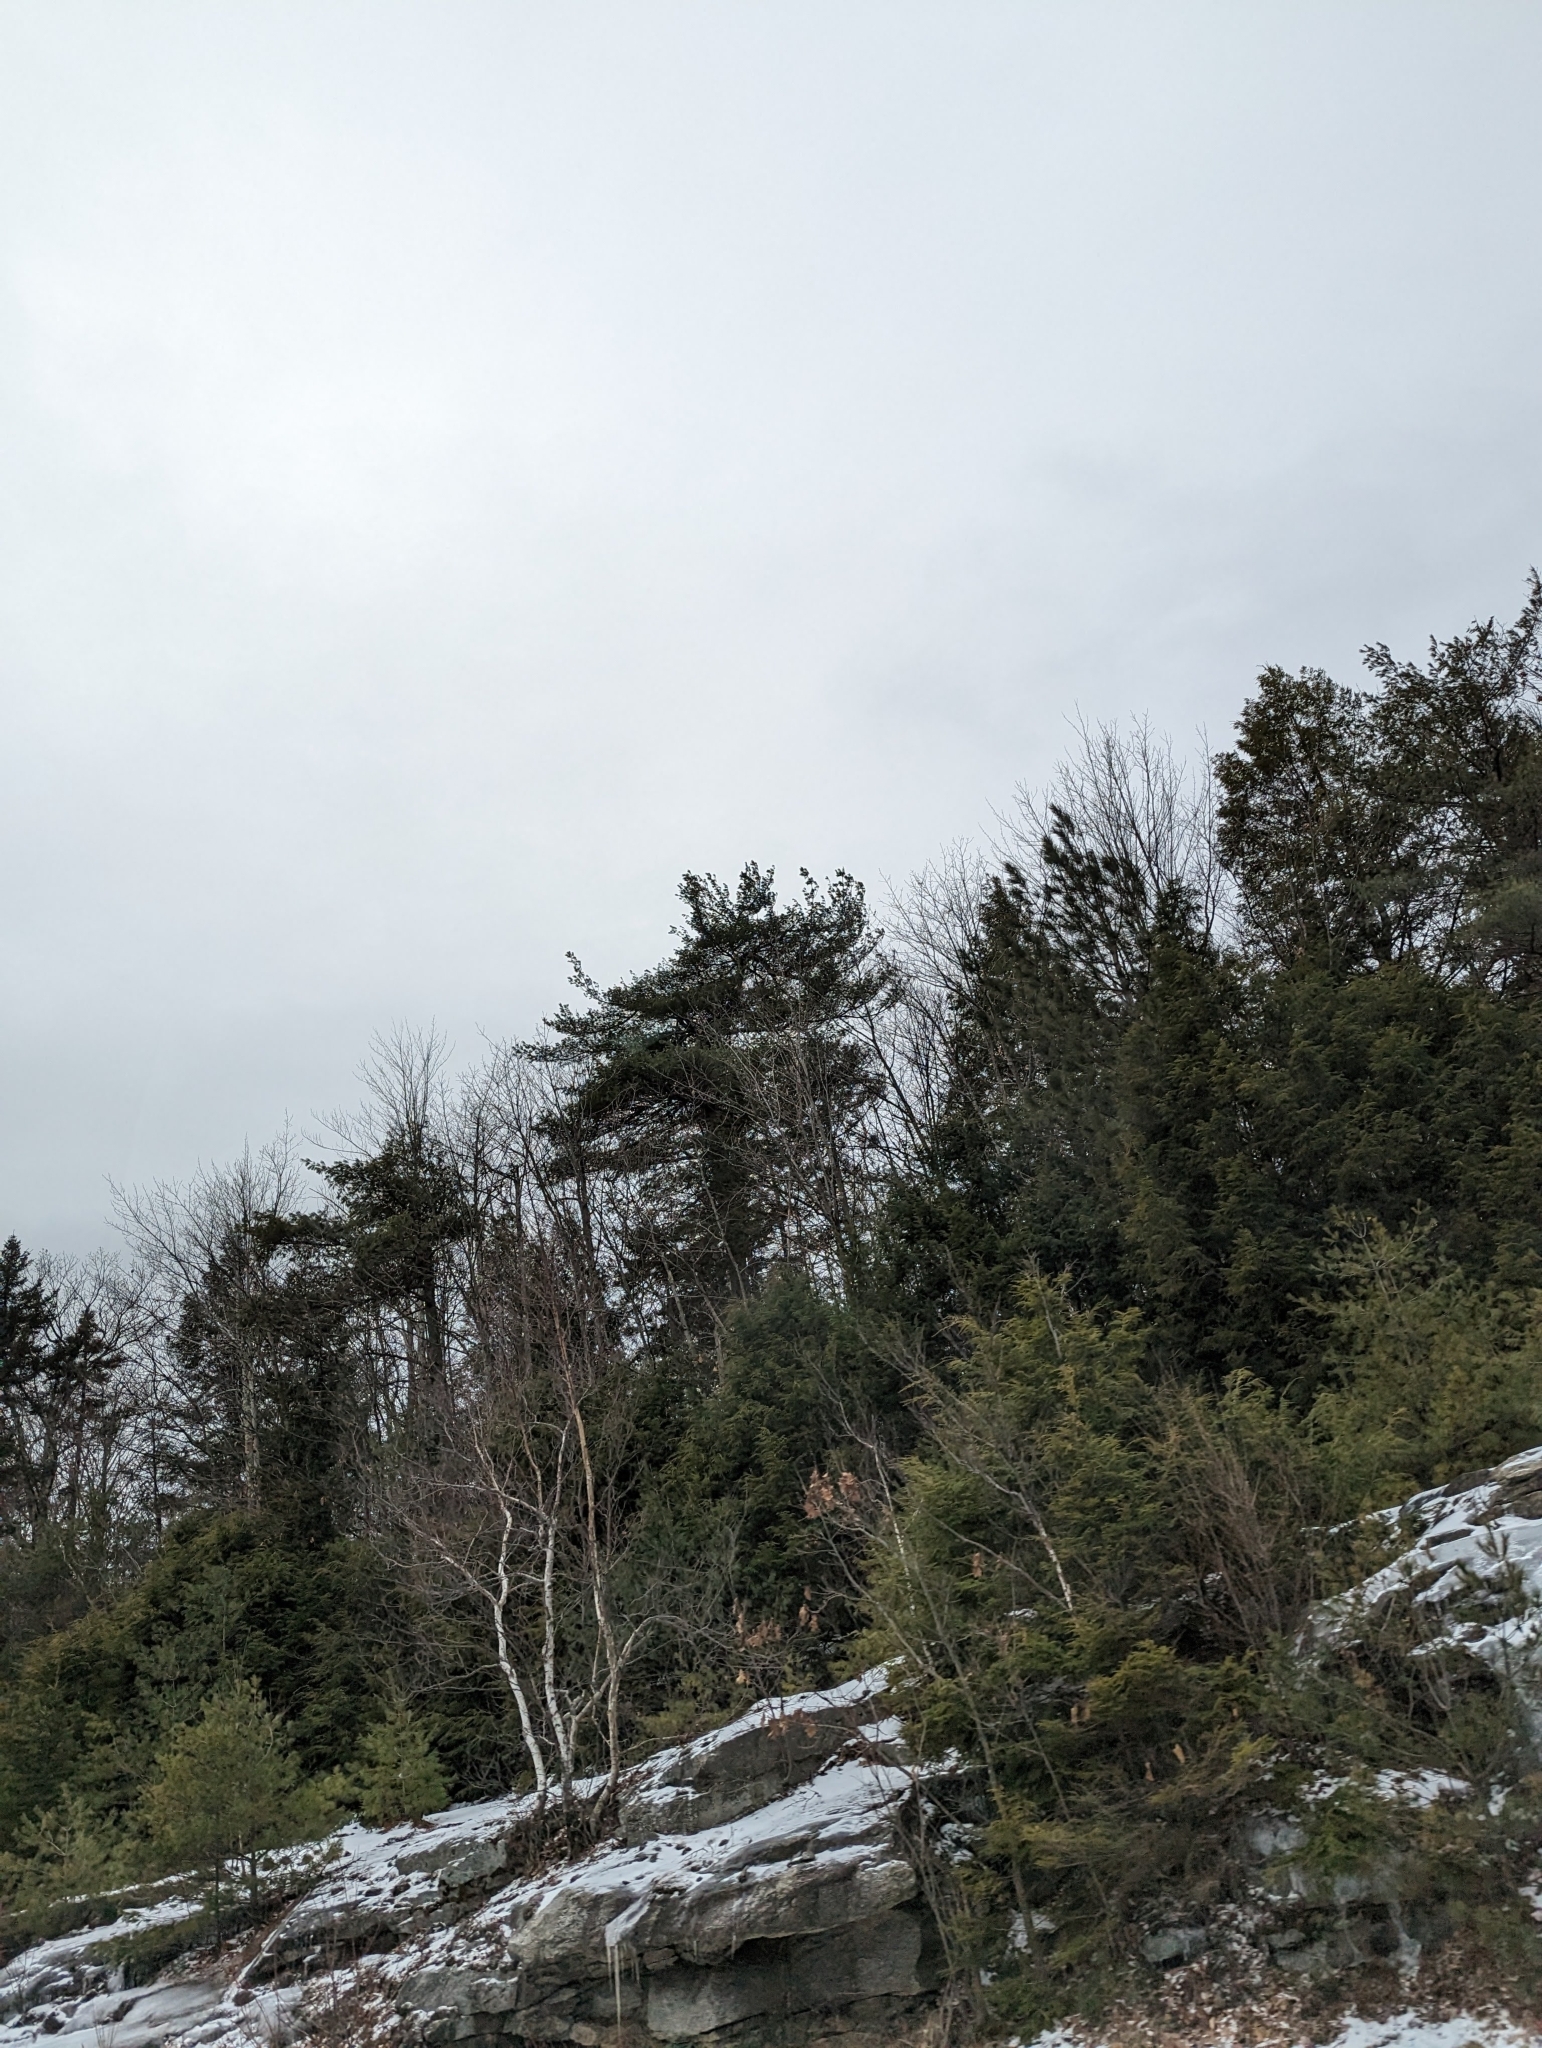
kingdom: Plantae
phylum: Tracheophyta
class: Pinopsida
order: Pinales
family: Pinaceae
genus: Pinus
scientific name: Pinus strobus
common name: Weymouth pine
